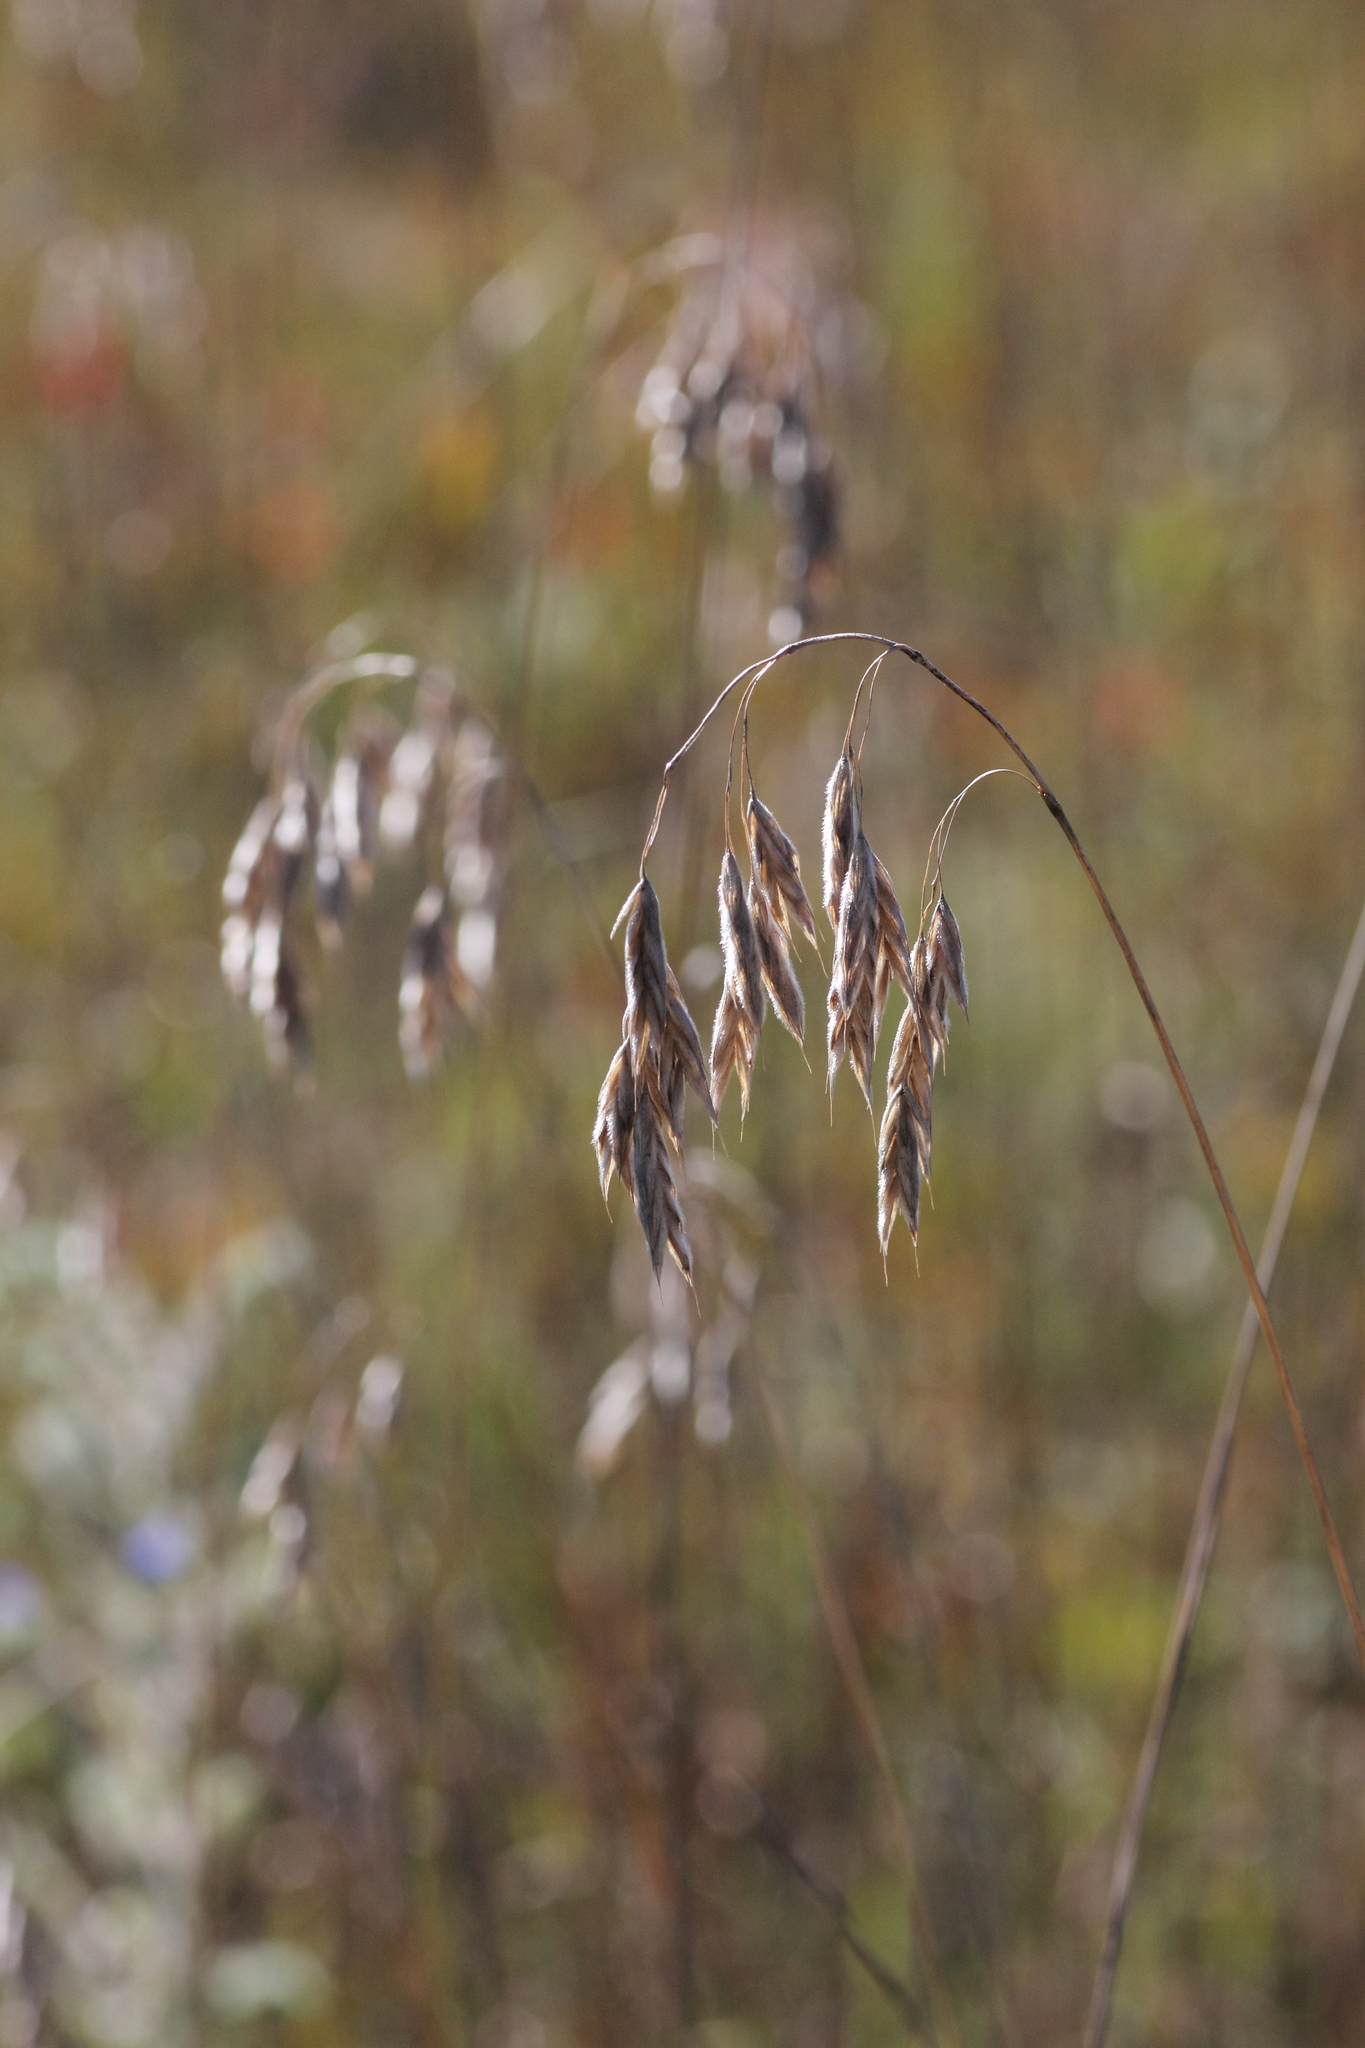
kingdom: Plantae
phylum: Tracheophyta
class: Liliopsida
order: Poales
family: Poaceae
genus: Bromus
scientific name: Bromus kalmii
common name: Kalm brome
